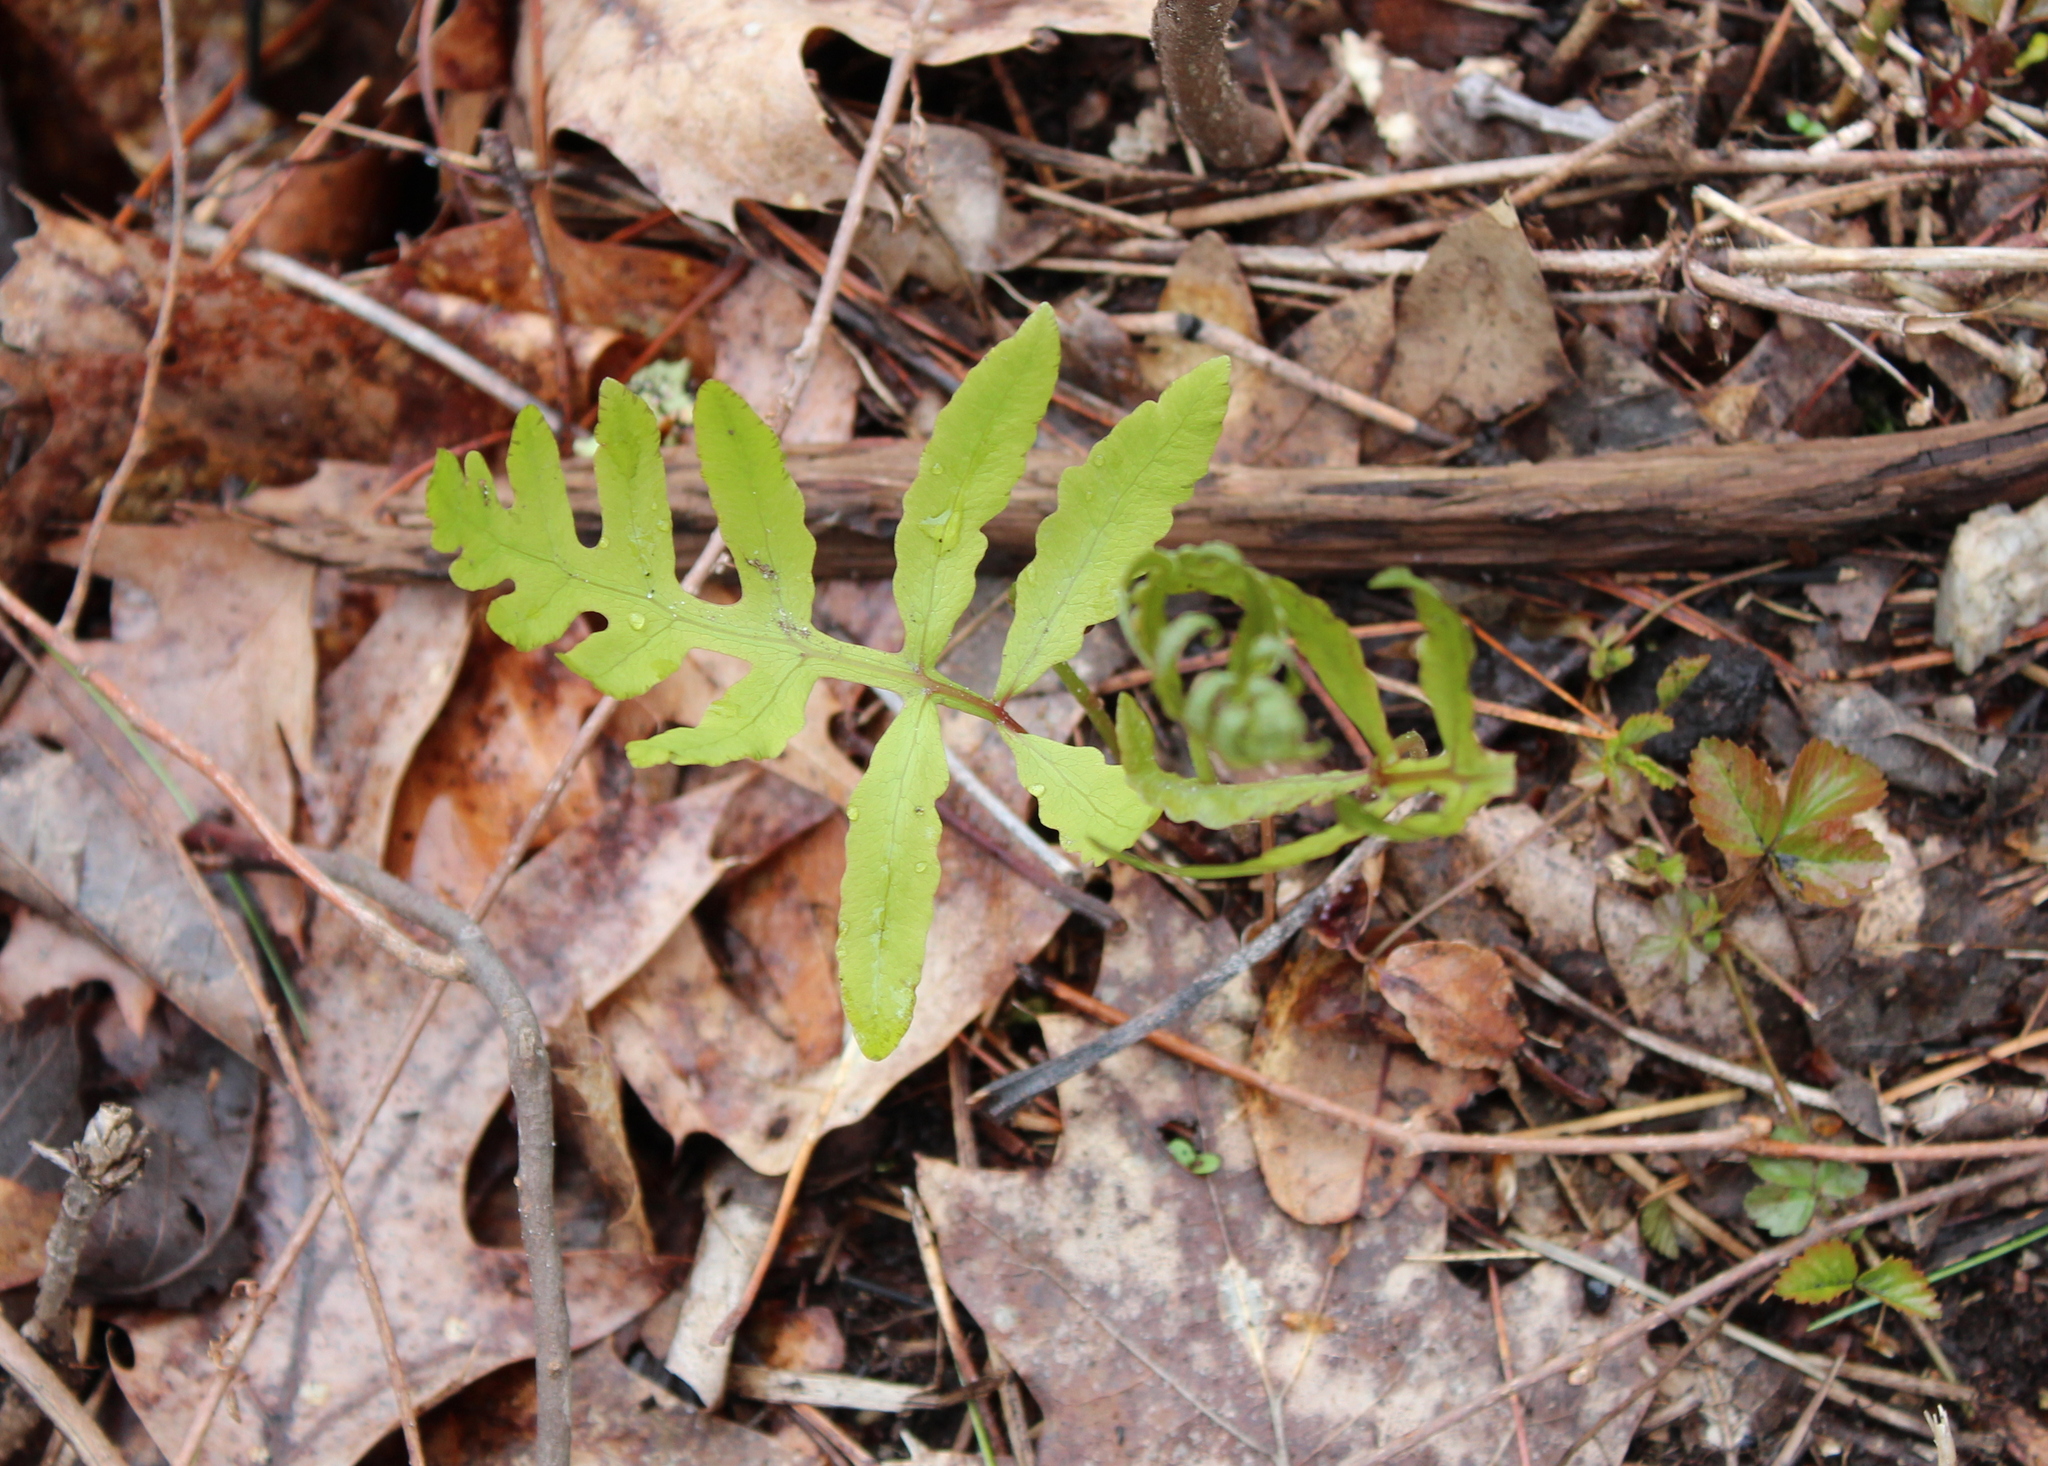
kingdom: Plantae
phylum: Tracheophyta
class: Polypodiopsida
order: Polypodiales
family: Onocleaceae
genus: Onoclea
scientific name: Onoclea sensibilis
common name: Sensitive fern
